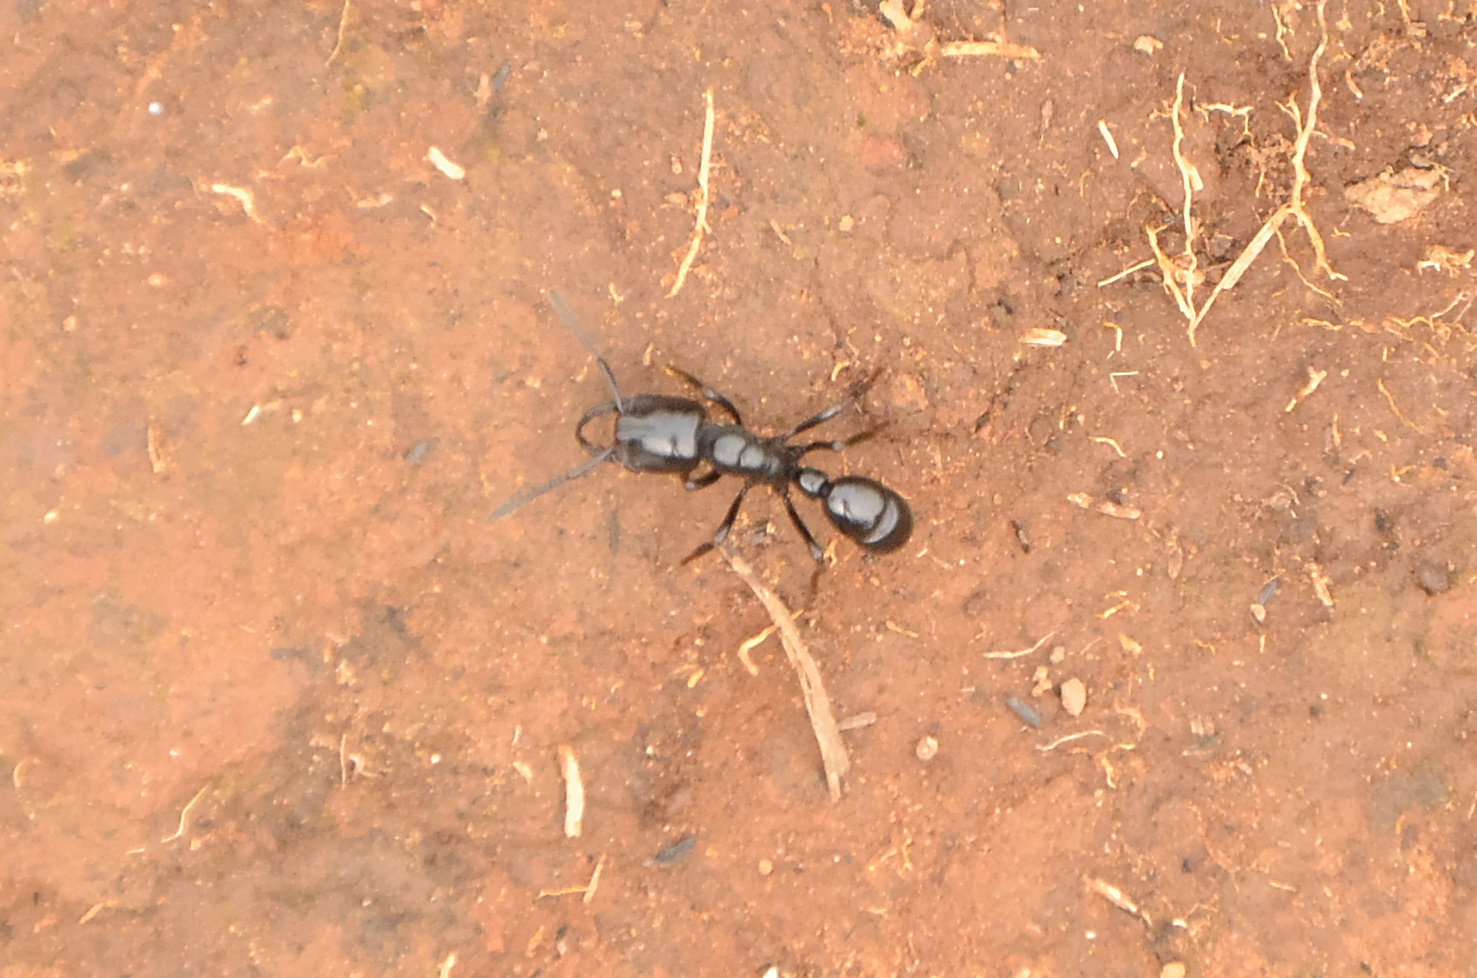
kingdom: Animalia
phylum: Arthropoda
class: Insecta
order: Hymenoptera
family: Formicidae
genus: Plectroctena
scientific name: Plectroctena mandibularis
